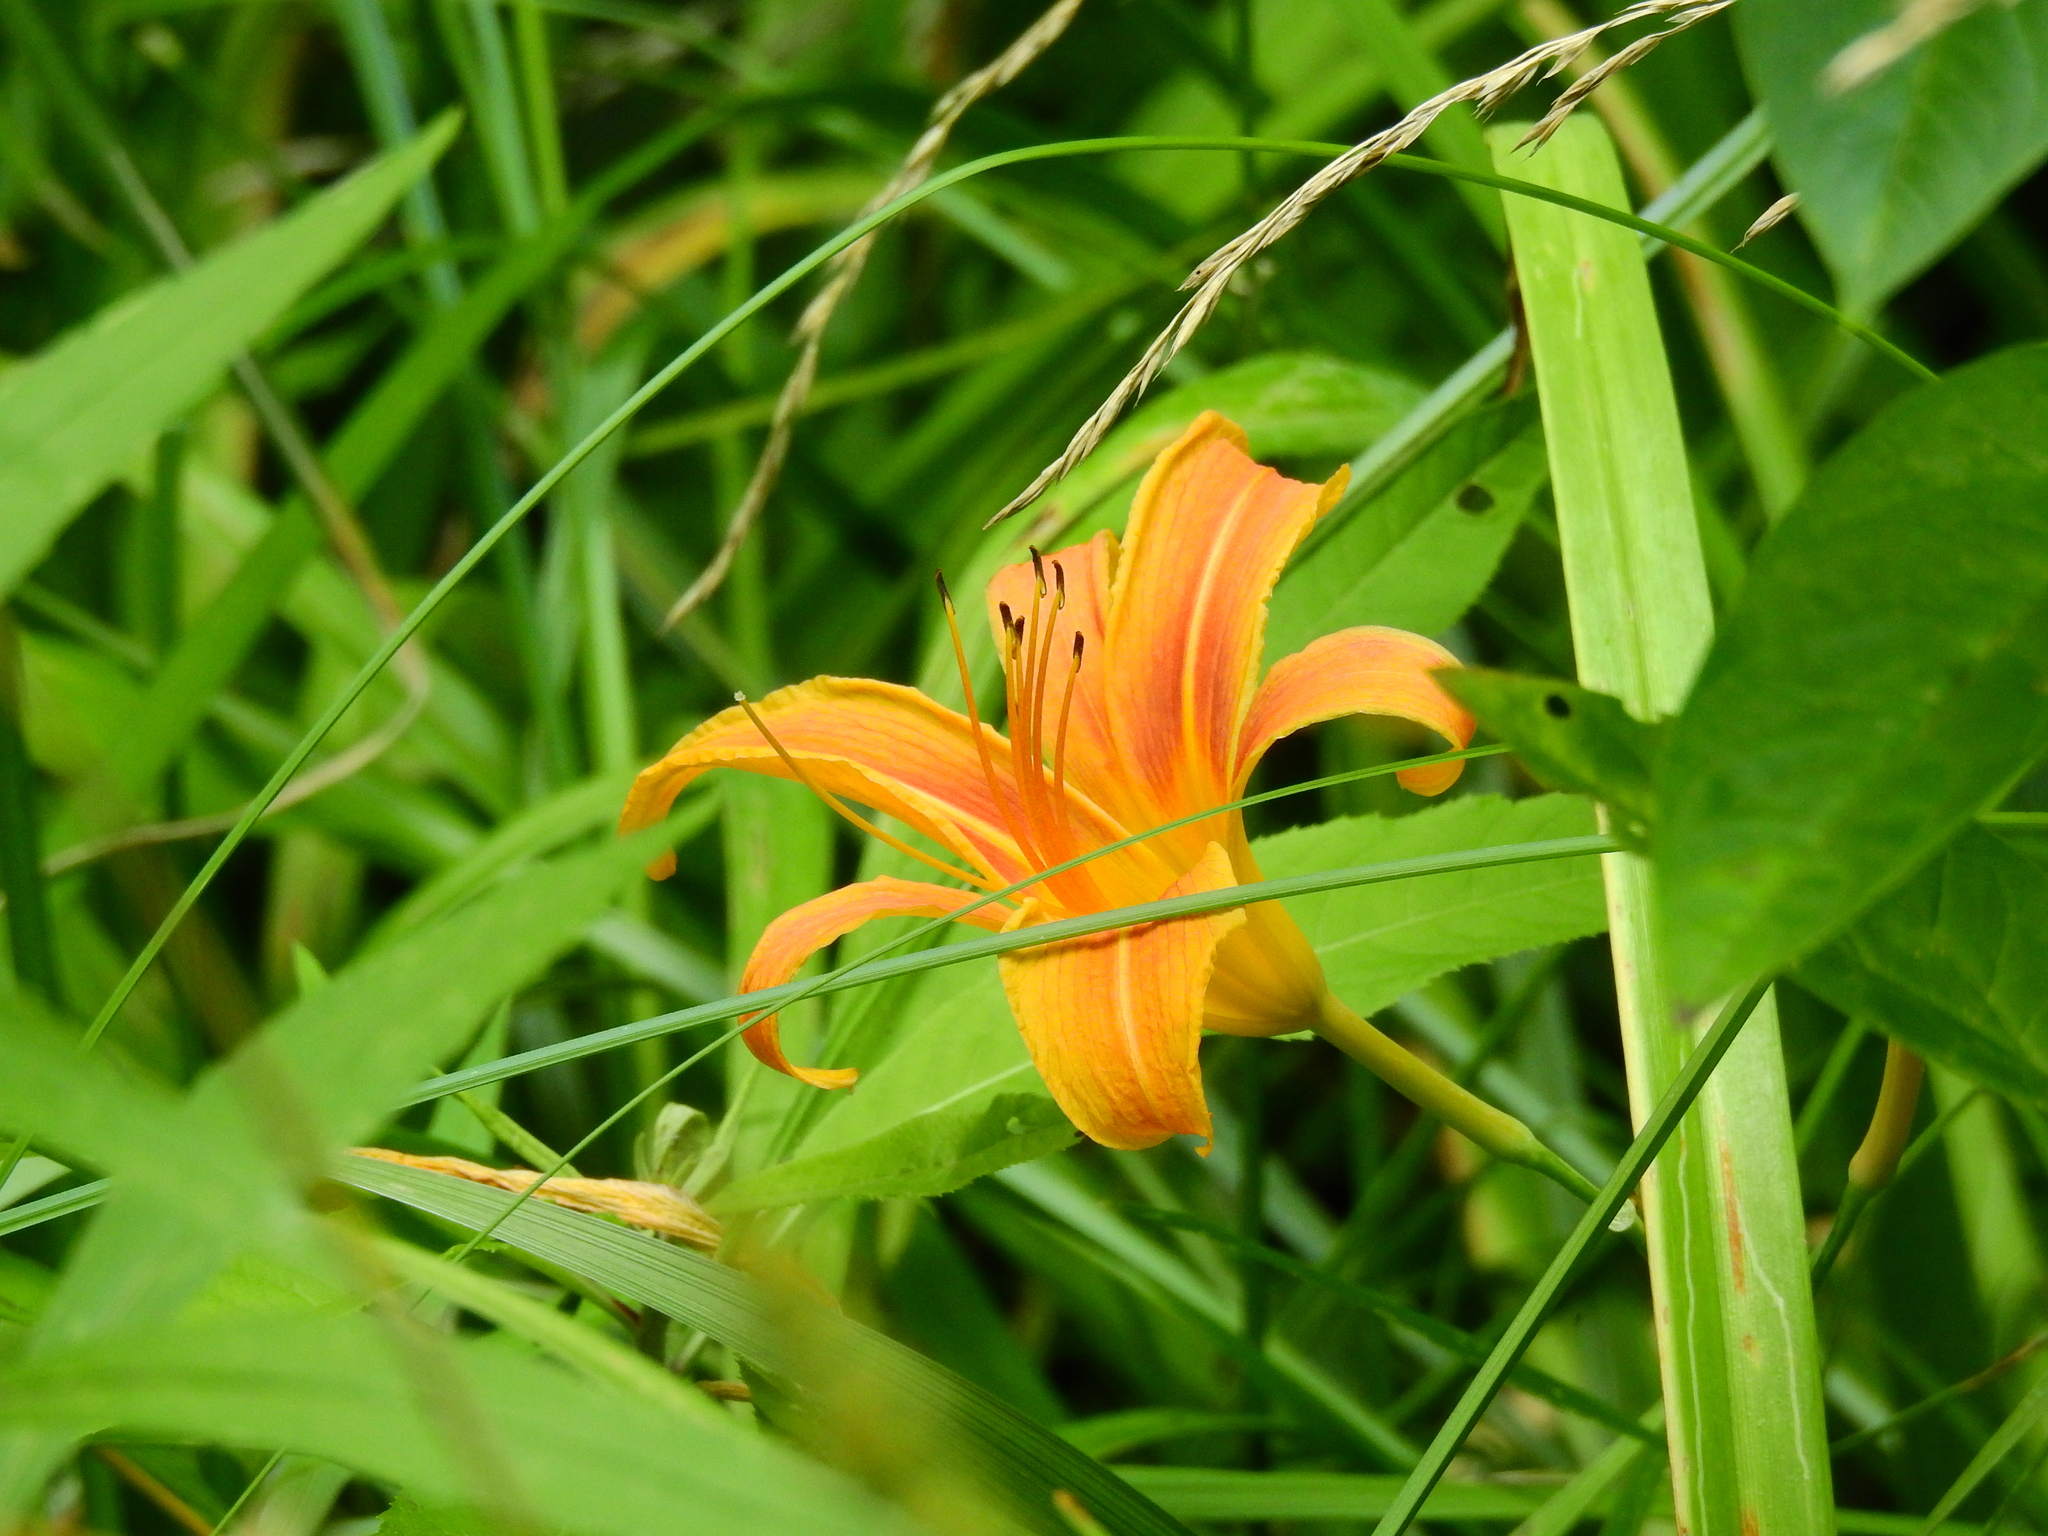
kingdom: Plantae
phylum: Tracheophyta
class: Liliopsida
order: Asparagales
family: Asphodelaceae
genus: Hemerocallis
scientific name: Hemerocallis fulva
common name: Orange day-lily
